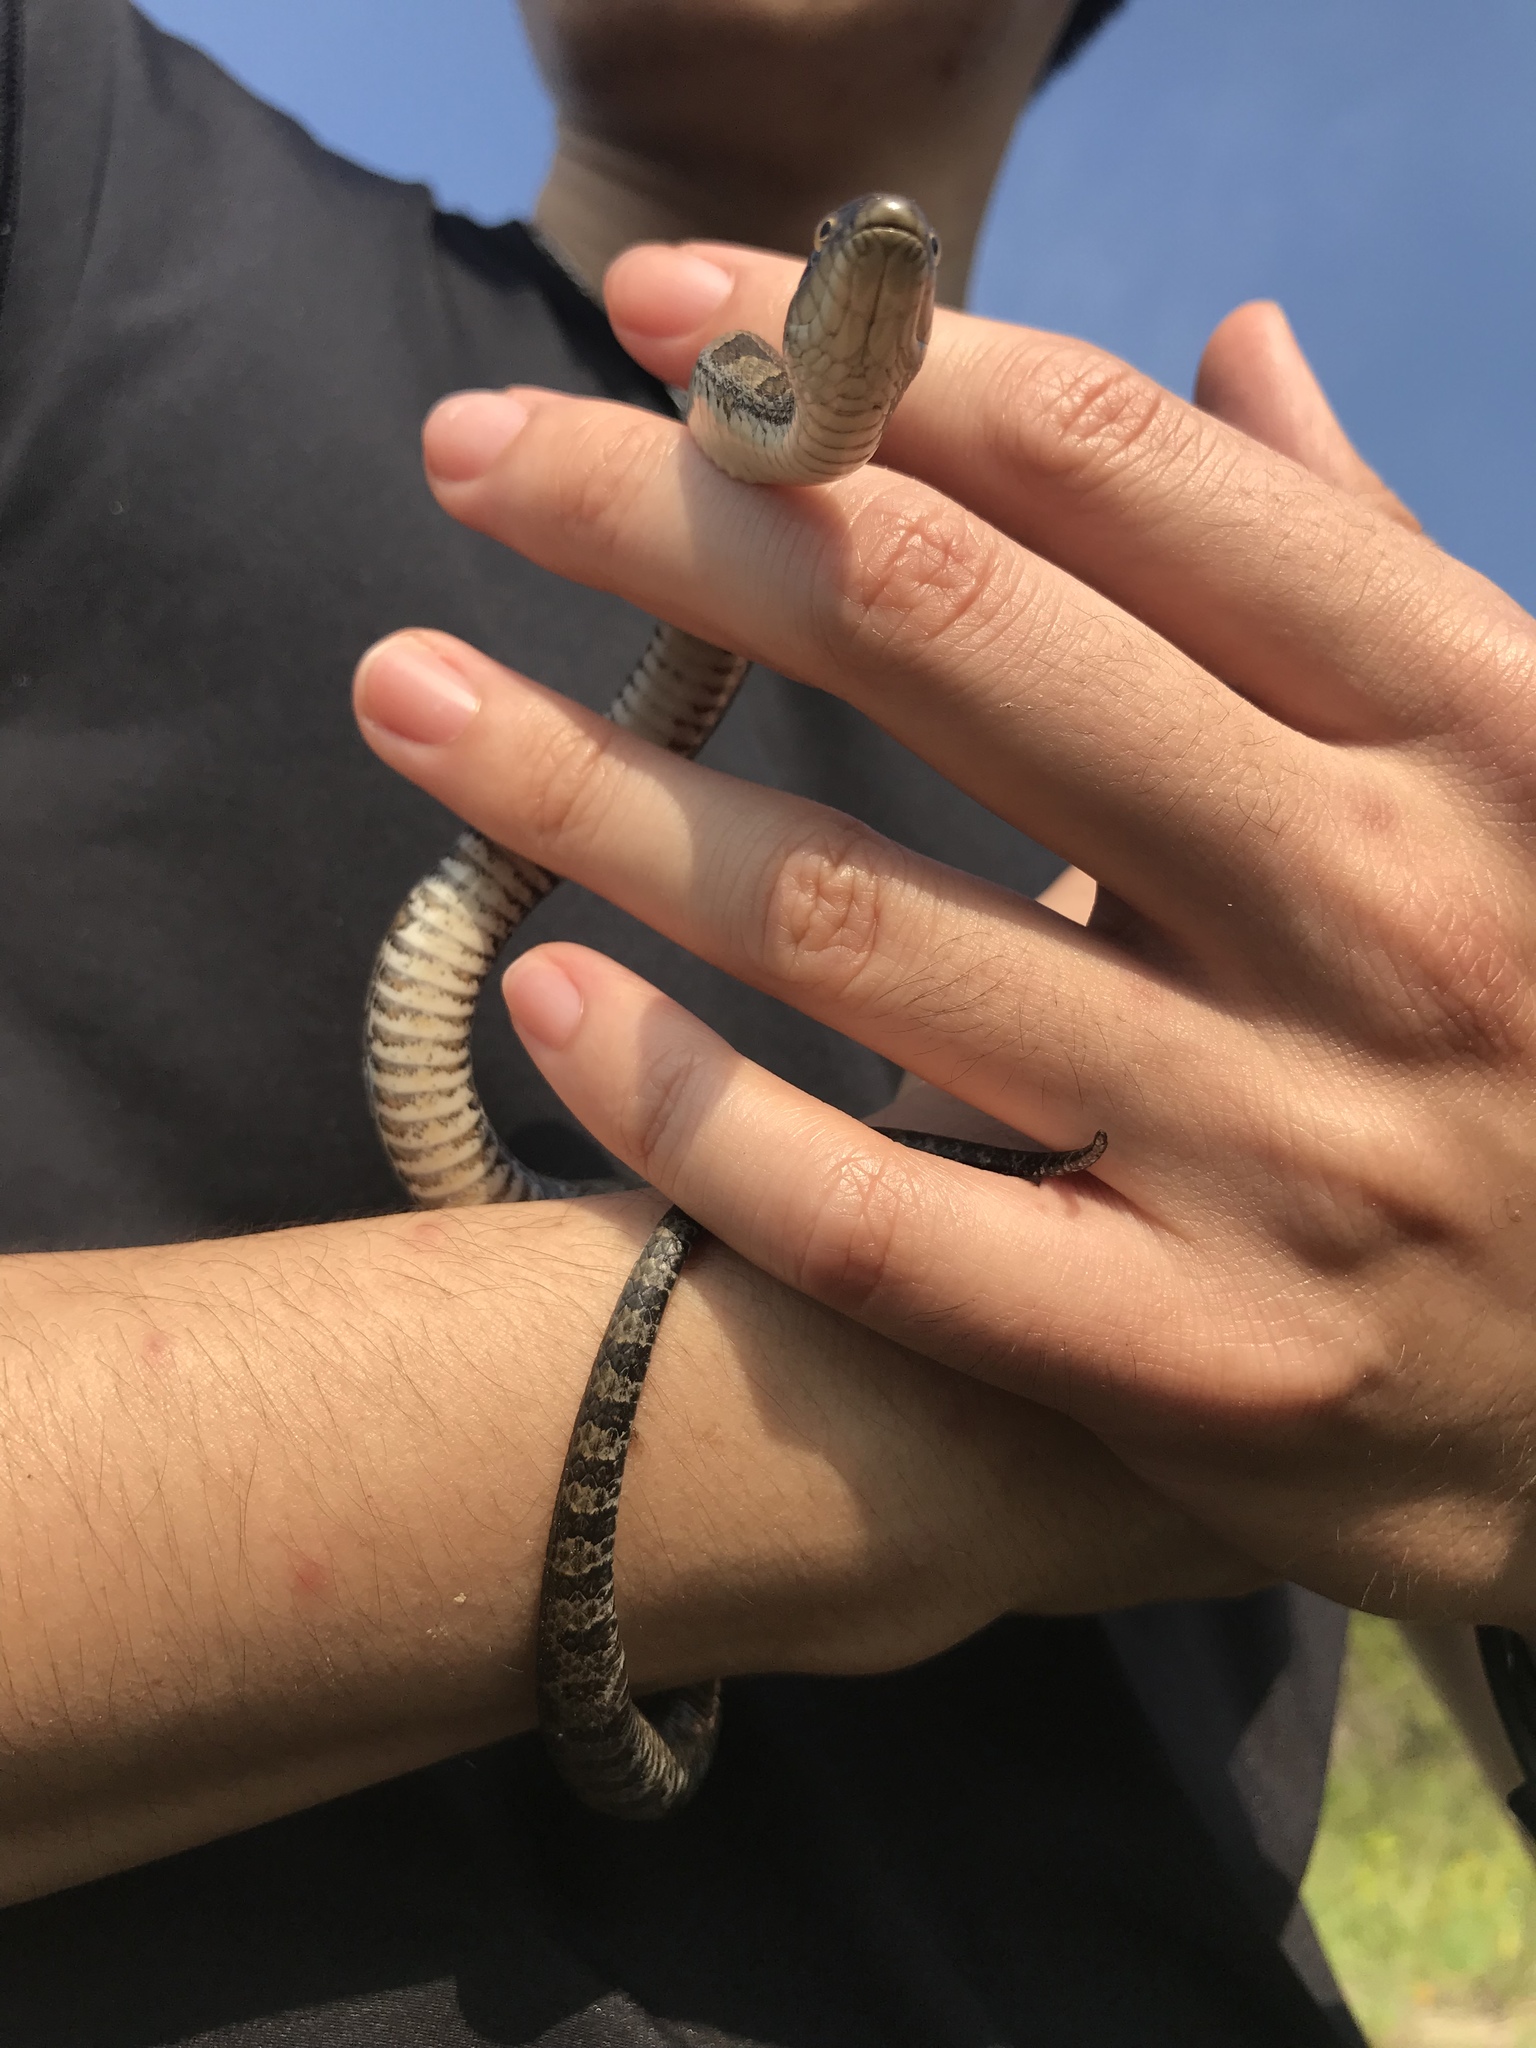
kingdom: Animalia
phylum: Chordata
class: Squamata
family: Colubridae
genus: Nerodia
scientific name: Nerodia sipedon
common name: Northern water snake
